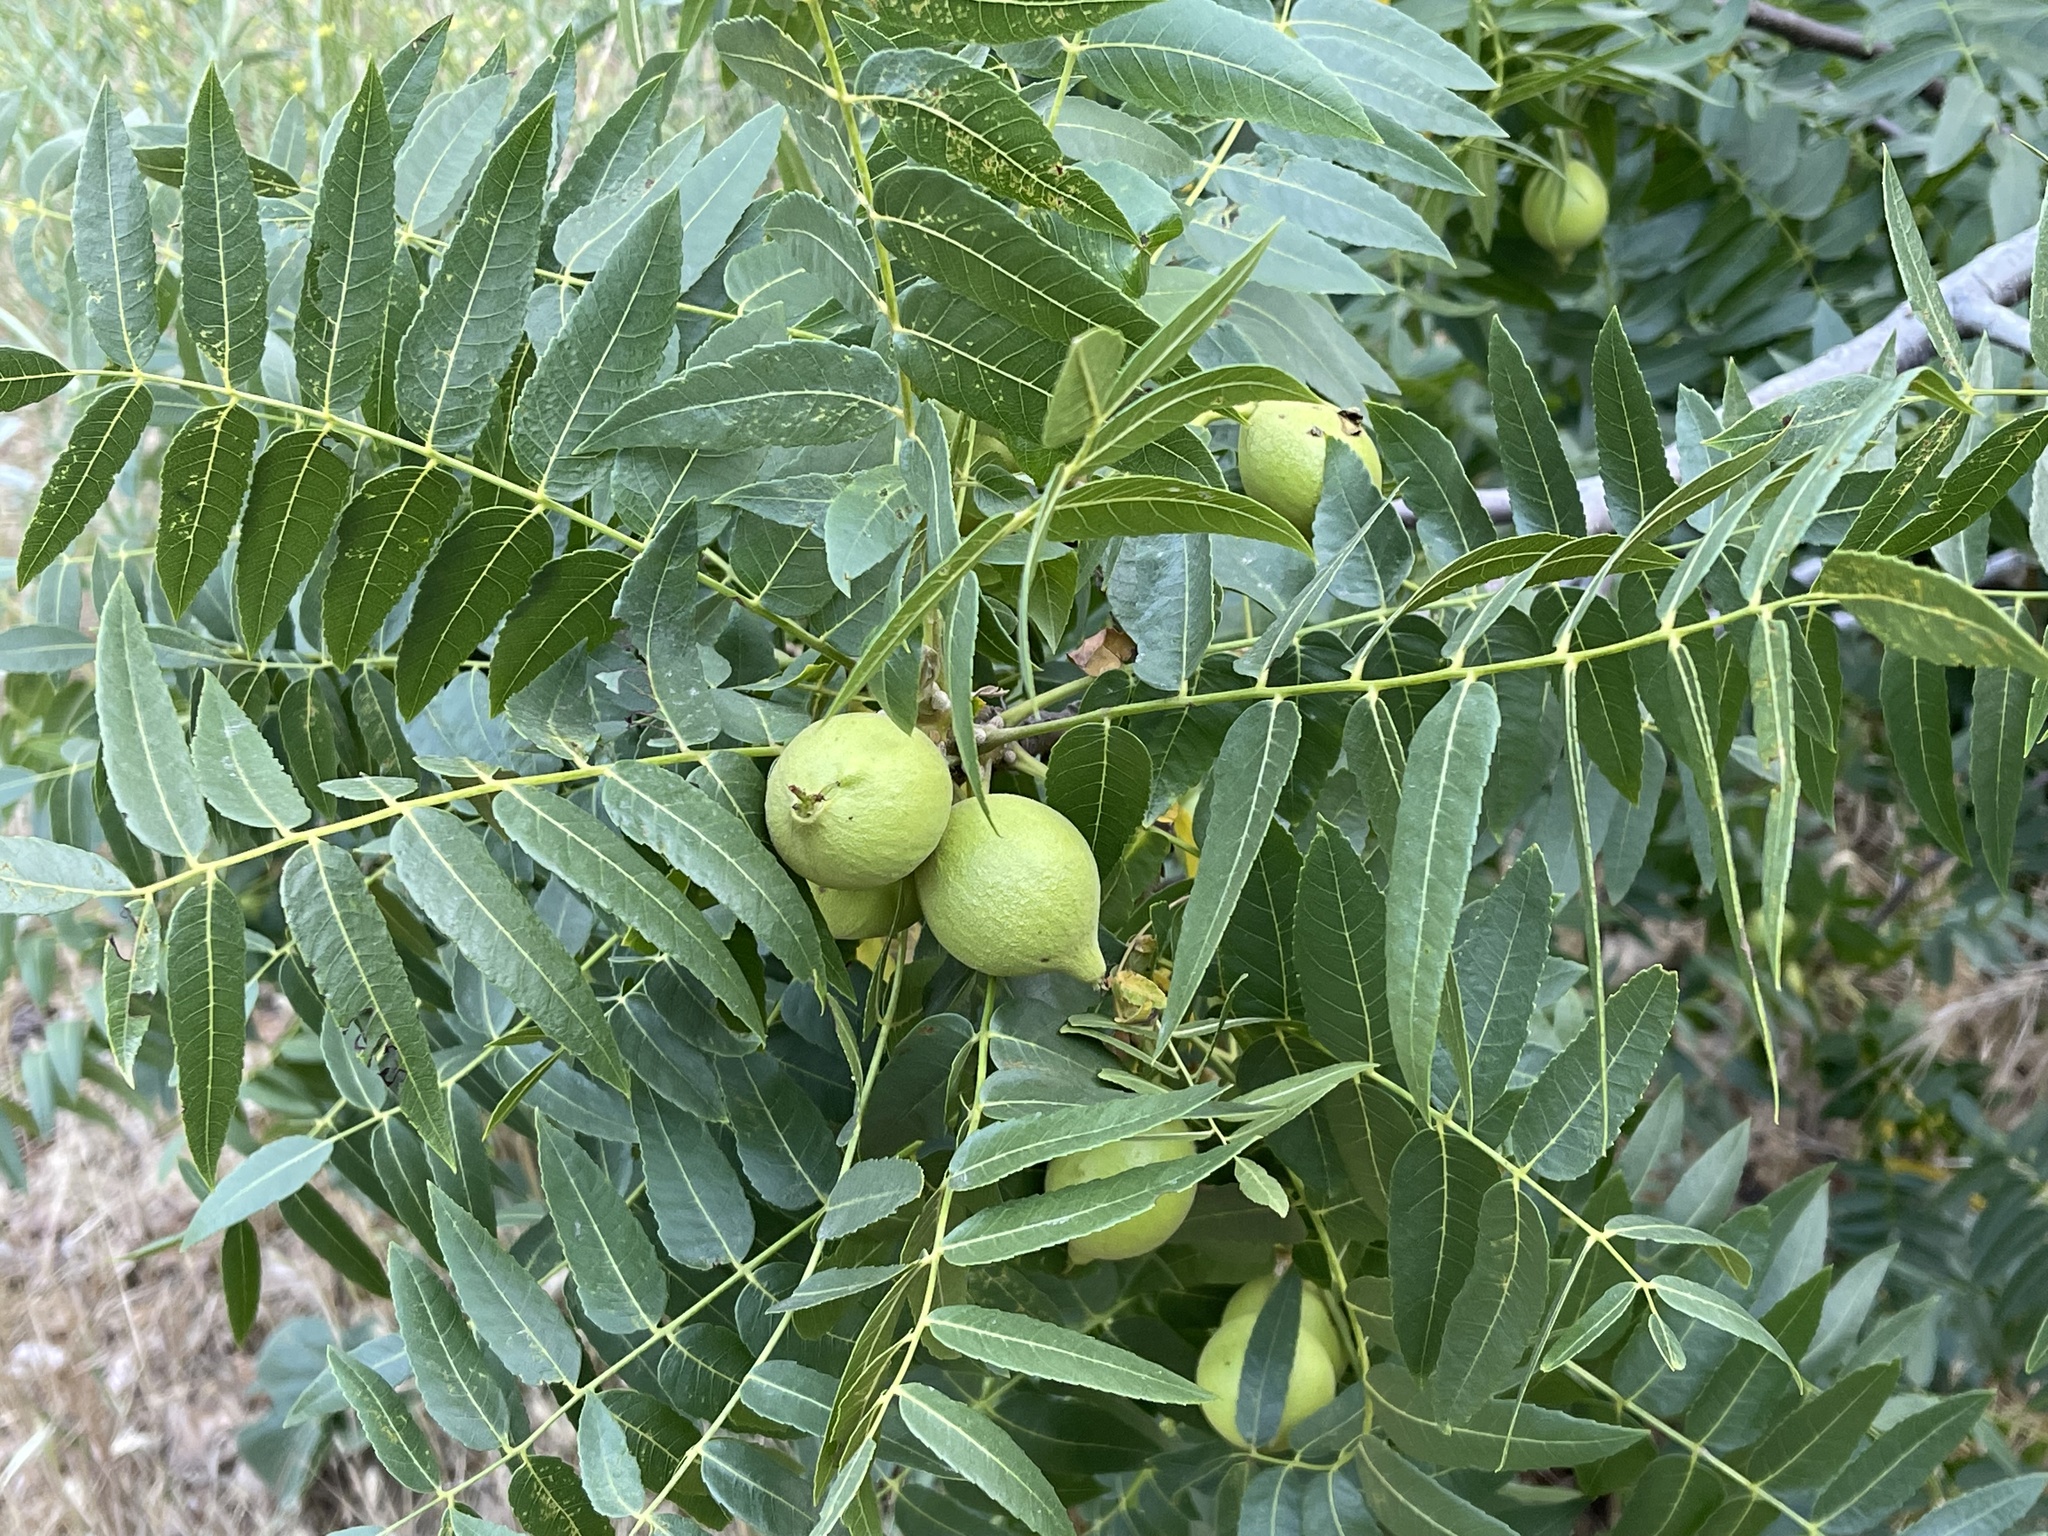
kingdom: Plantae
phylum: Tracheophyta
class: Magnoliopsida
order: Fagales
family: Juglandaceae
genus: Juglans
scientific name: Juglans californica
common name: Southern california black walnut
